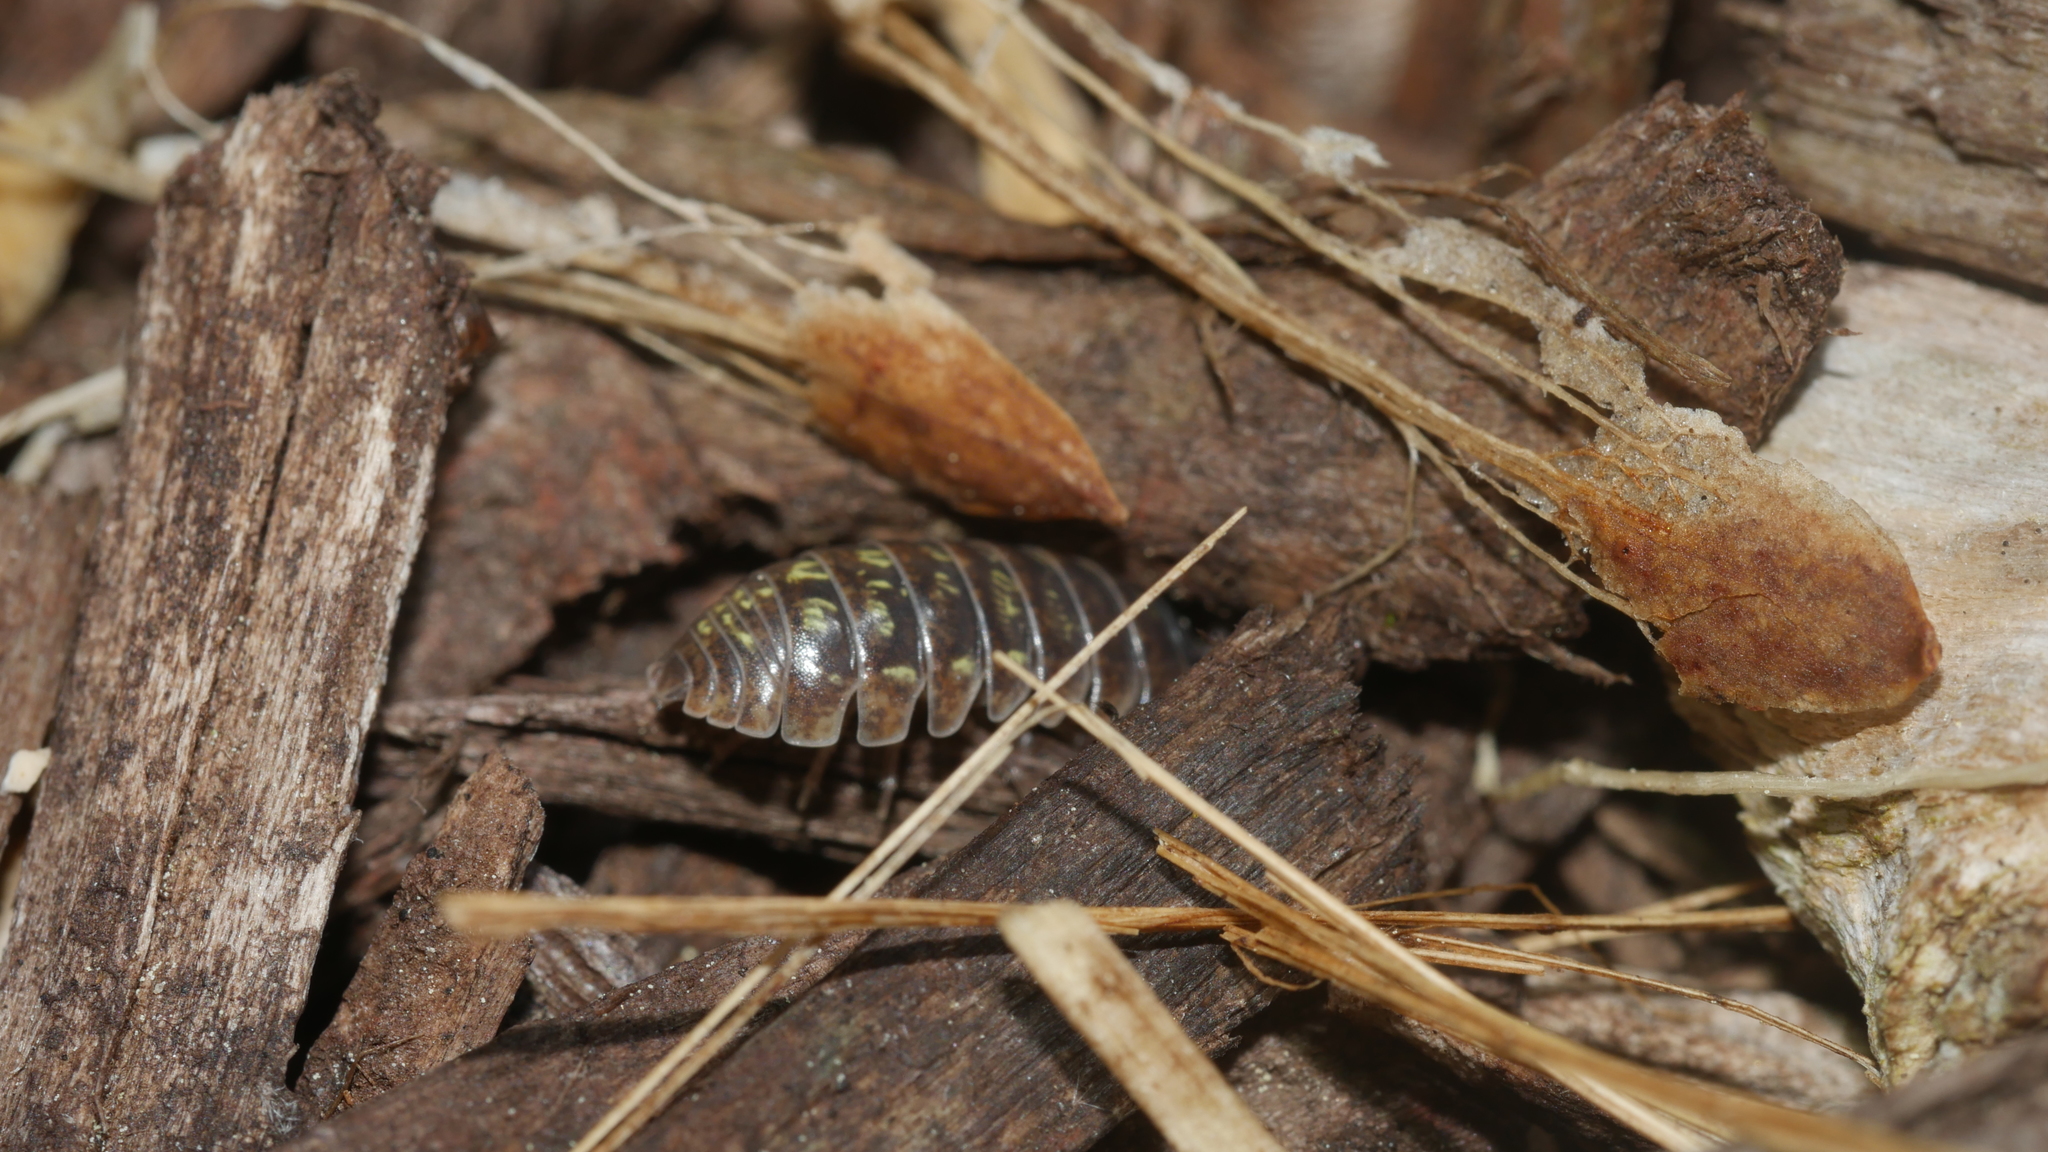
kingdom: Animalia
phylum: Arthropoda
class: Malacostraca
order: Isopoda
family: Armadillidiidae
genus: Armadillidium
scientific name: Armadillidium vulgare
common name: Common pill woodlouse
